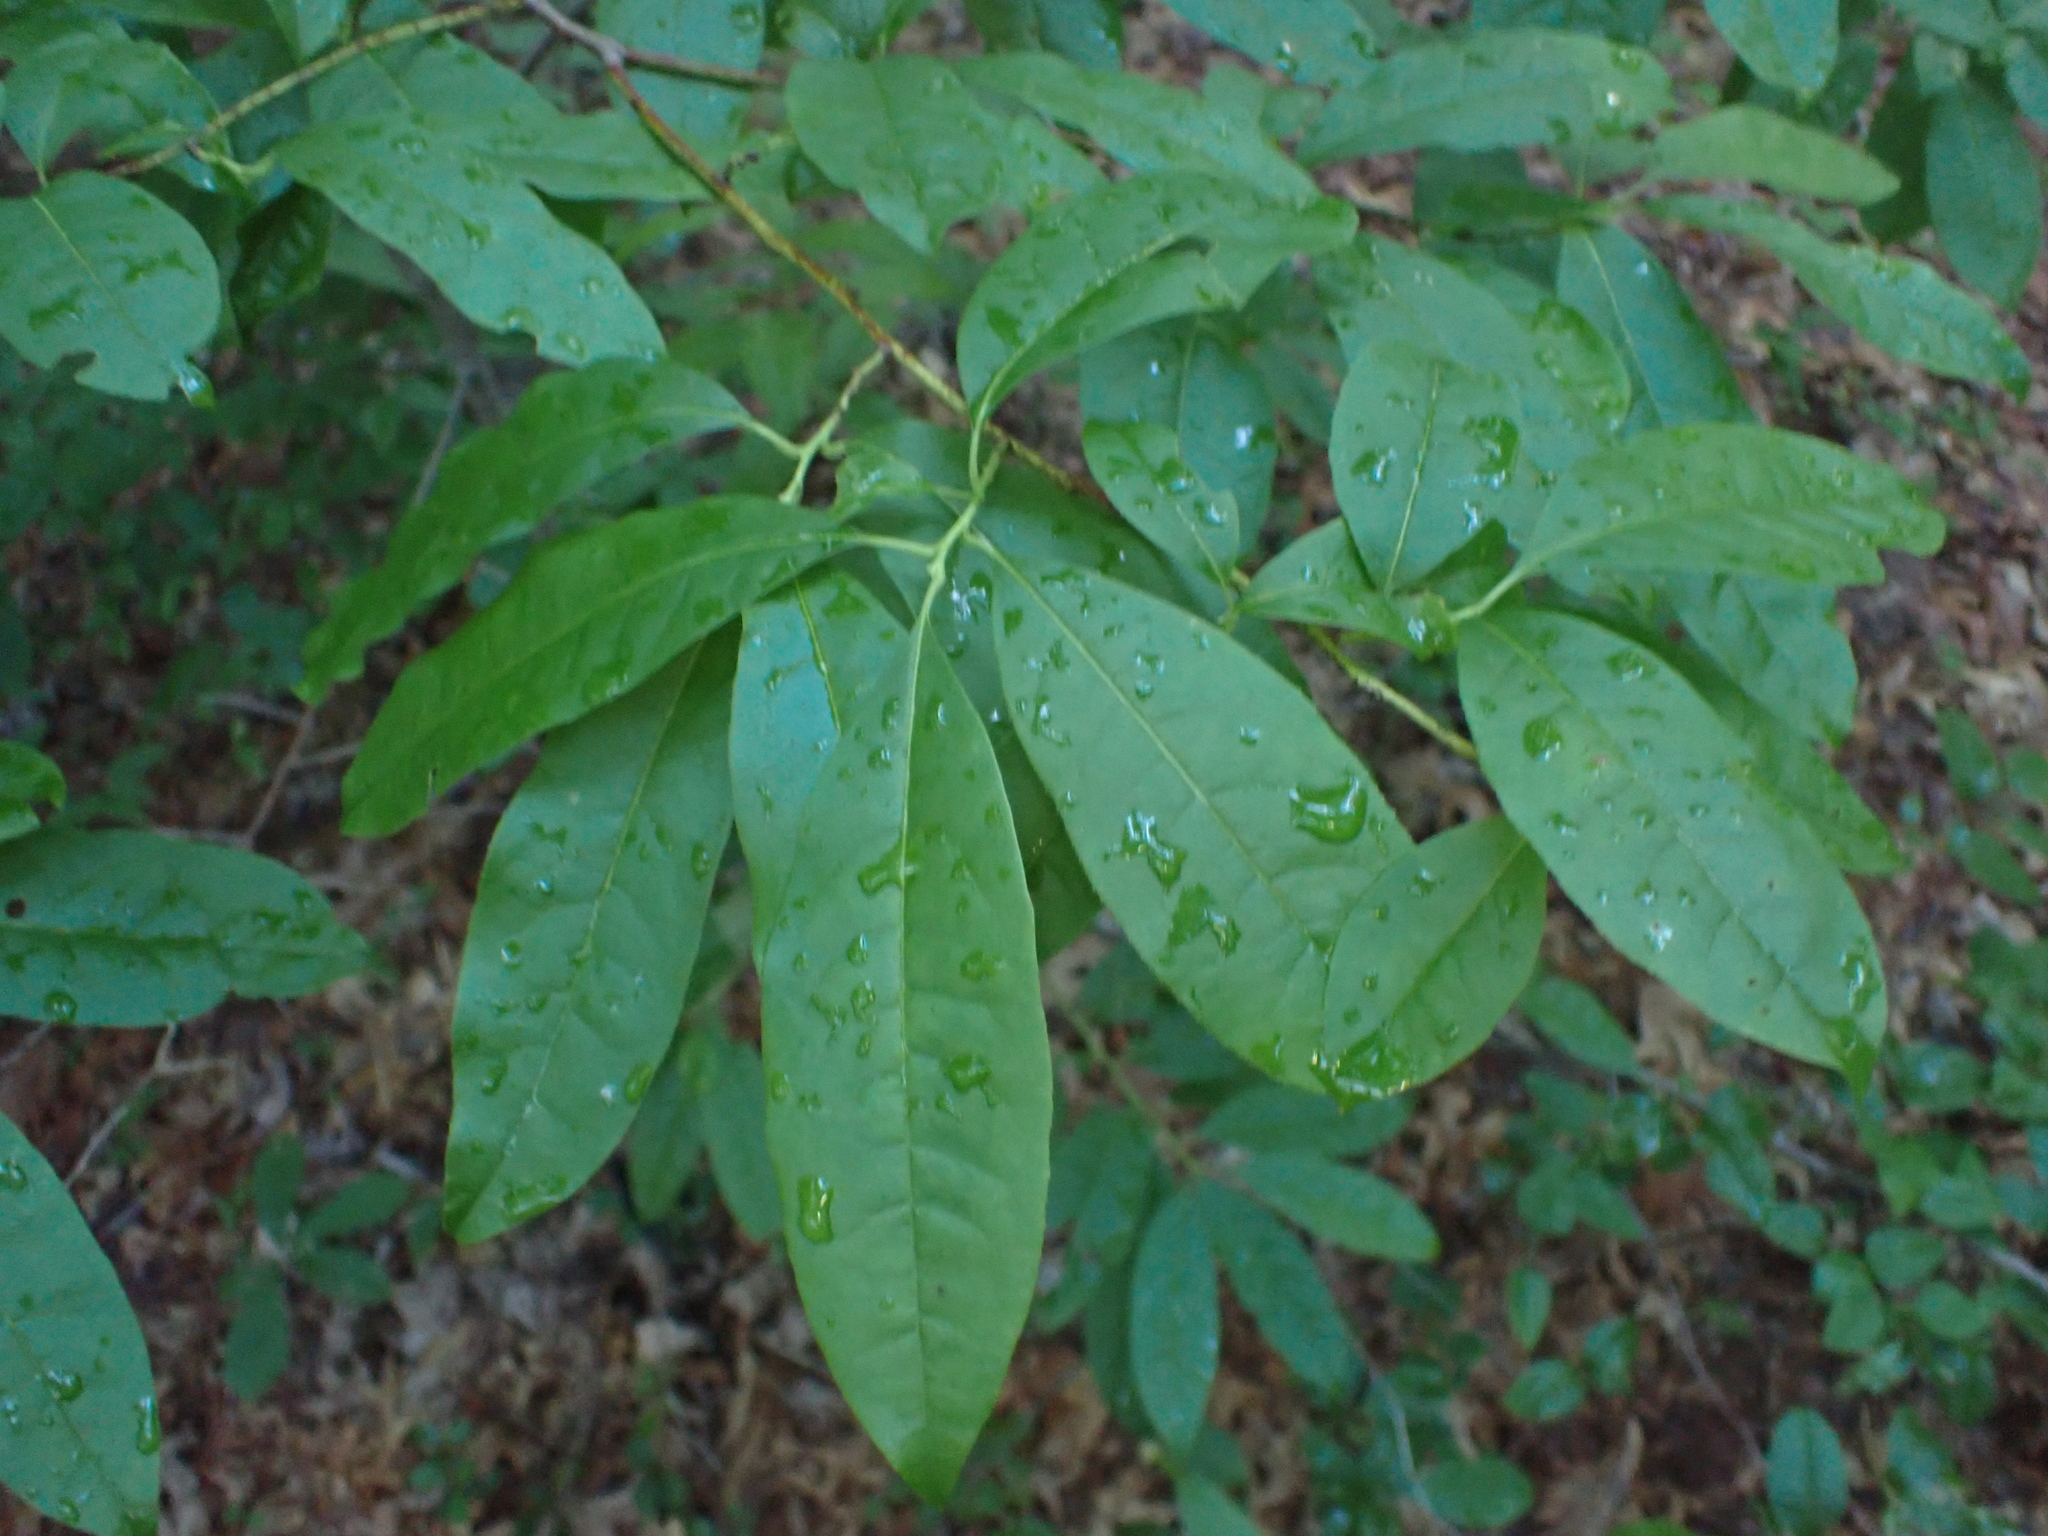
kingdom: Plantae
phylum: Tracheophyta
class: Magnoliopsida
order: Ericales
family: Ericaceae
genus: Oxydendrum
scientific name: Oxydendrum arboreum
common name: Sourwood
